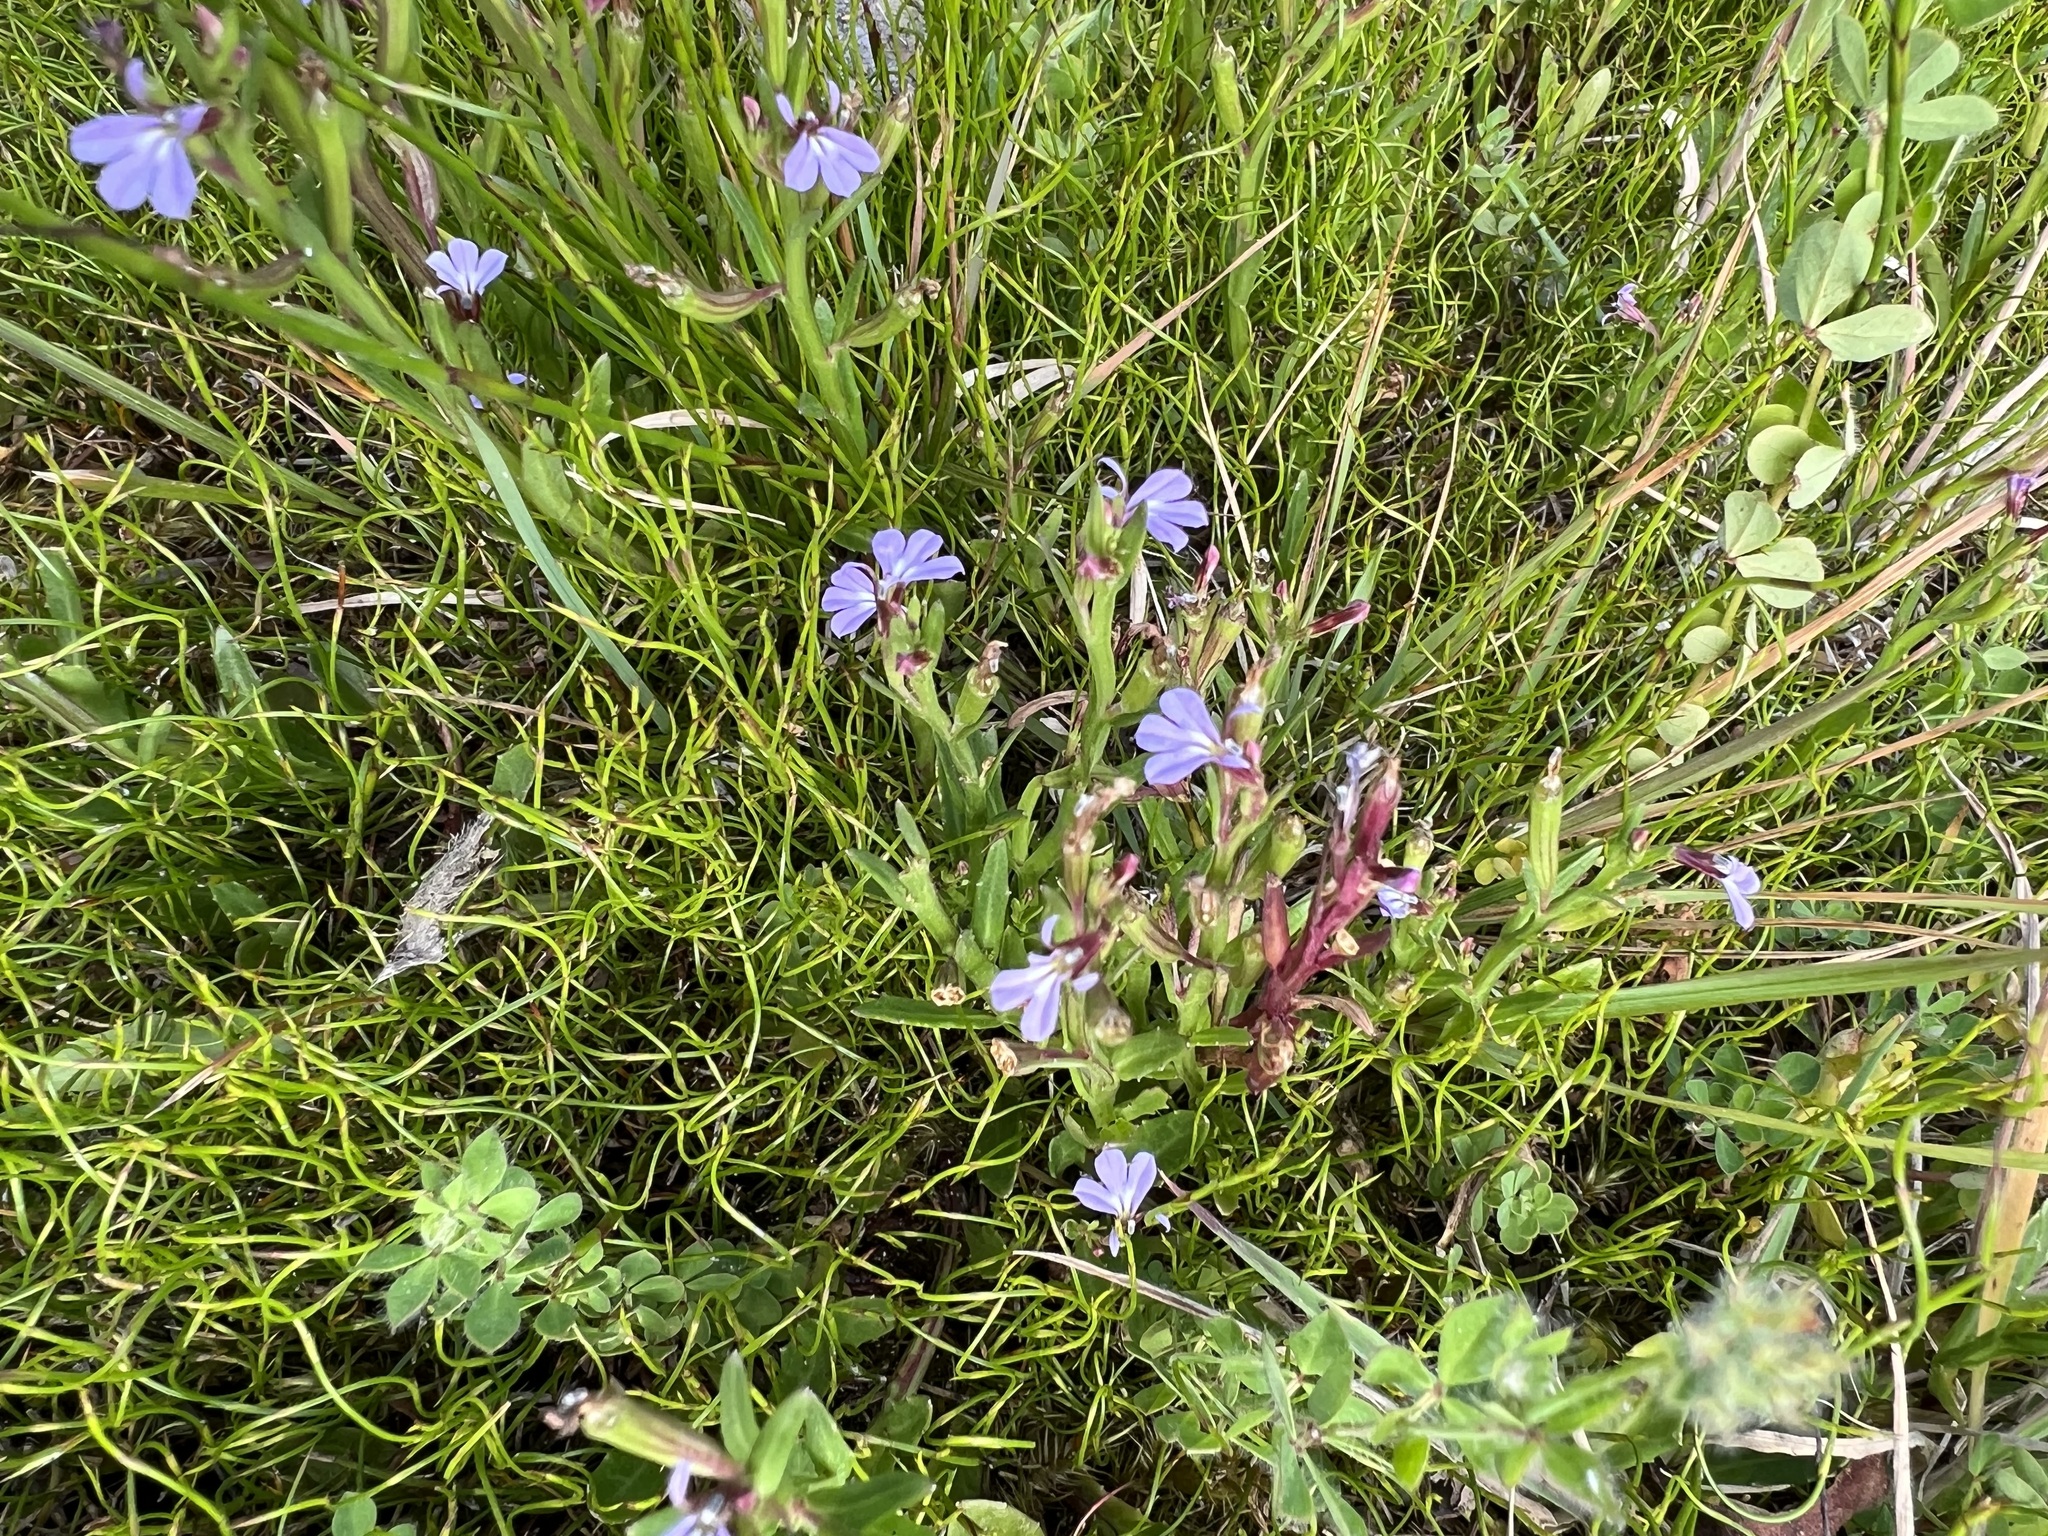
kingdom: Plantae
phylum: Tracheophyta
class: Magnoliopsida
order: Asterales
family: Campanulaceae
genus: Lobelia
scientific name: Lobelia anceps
